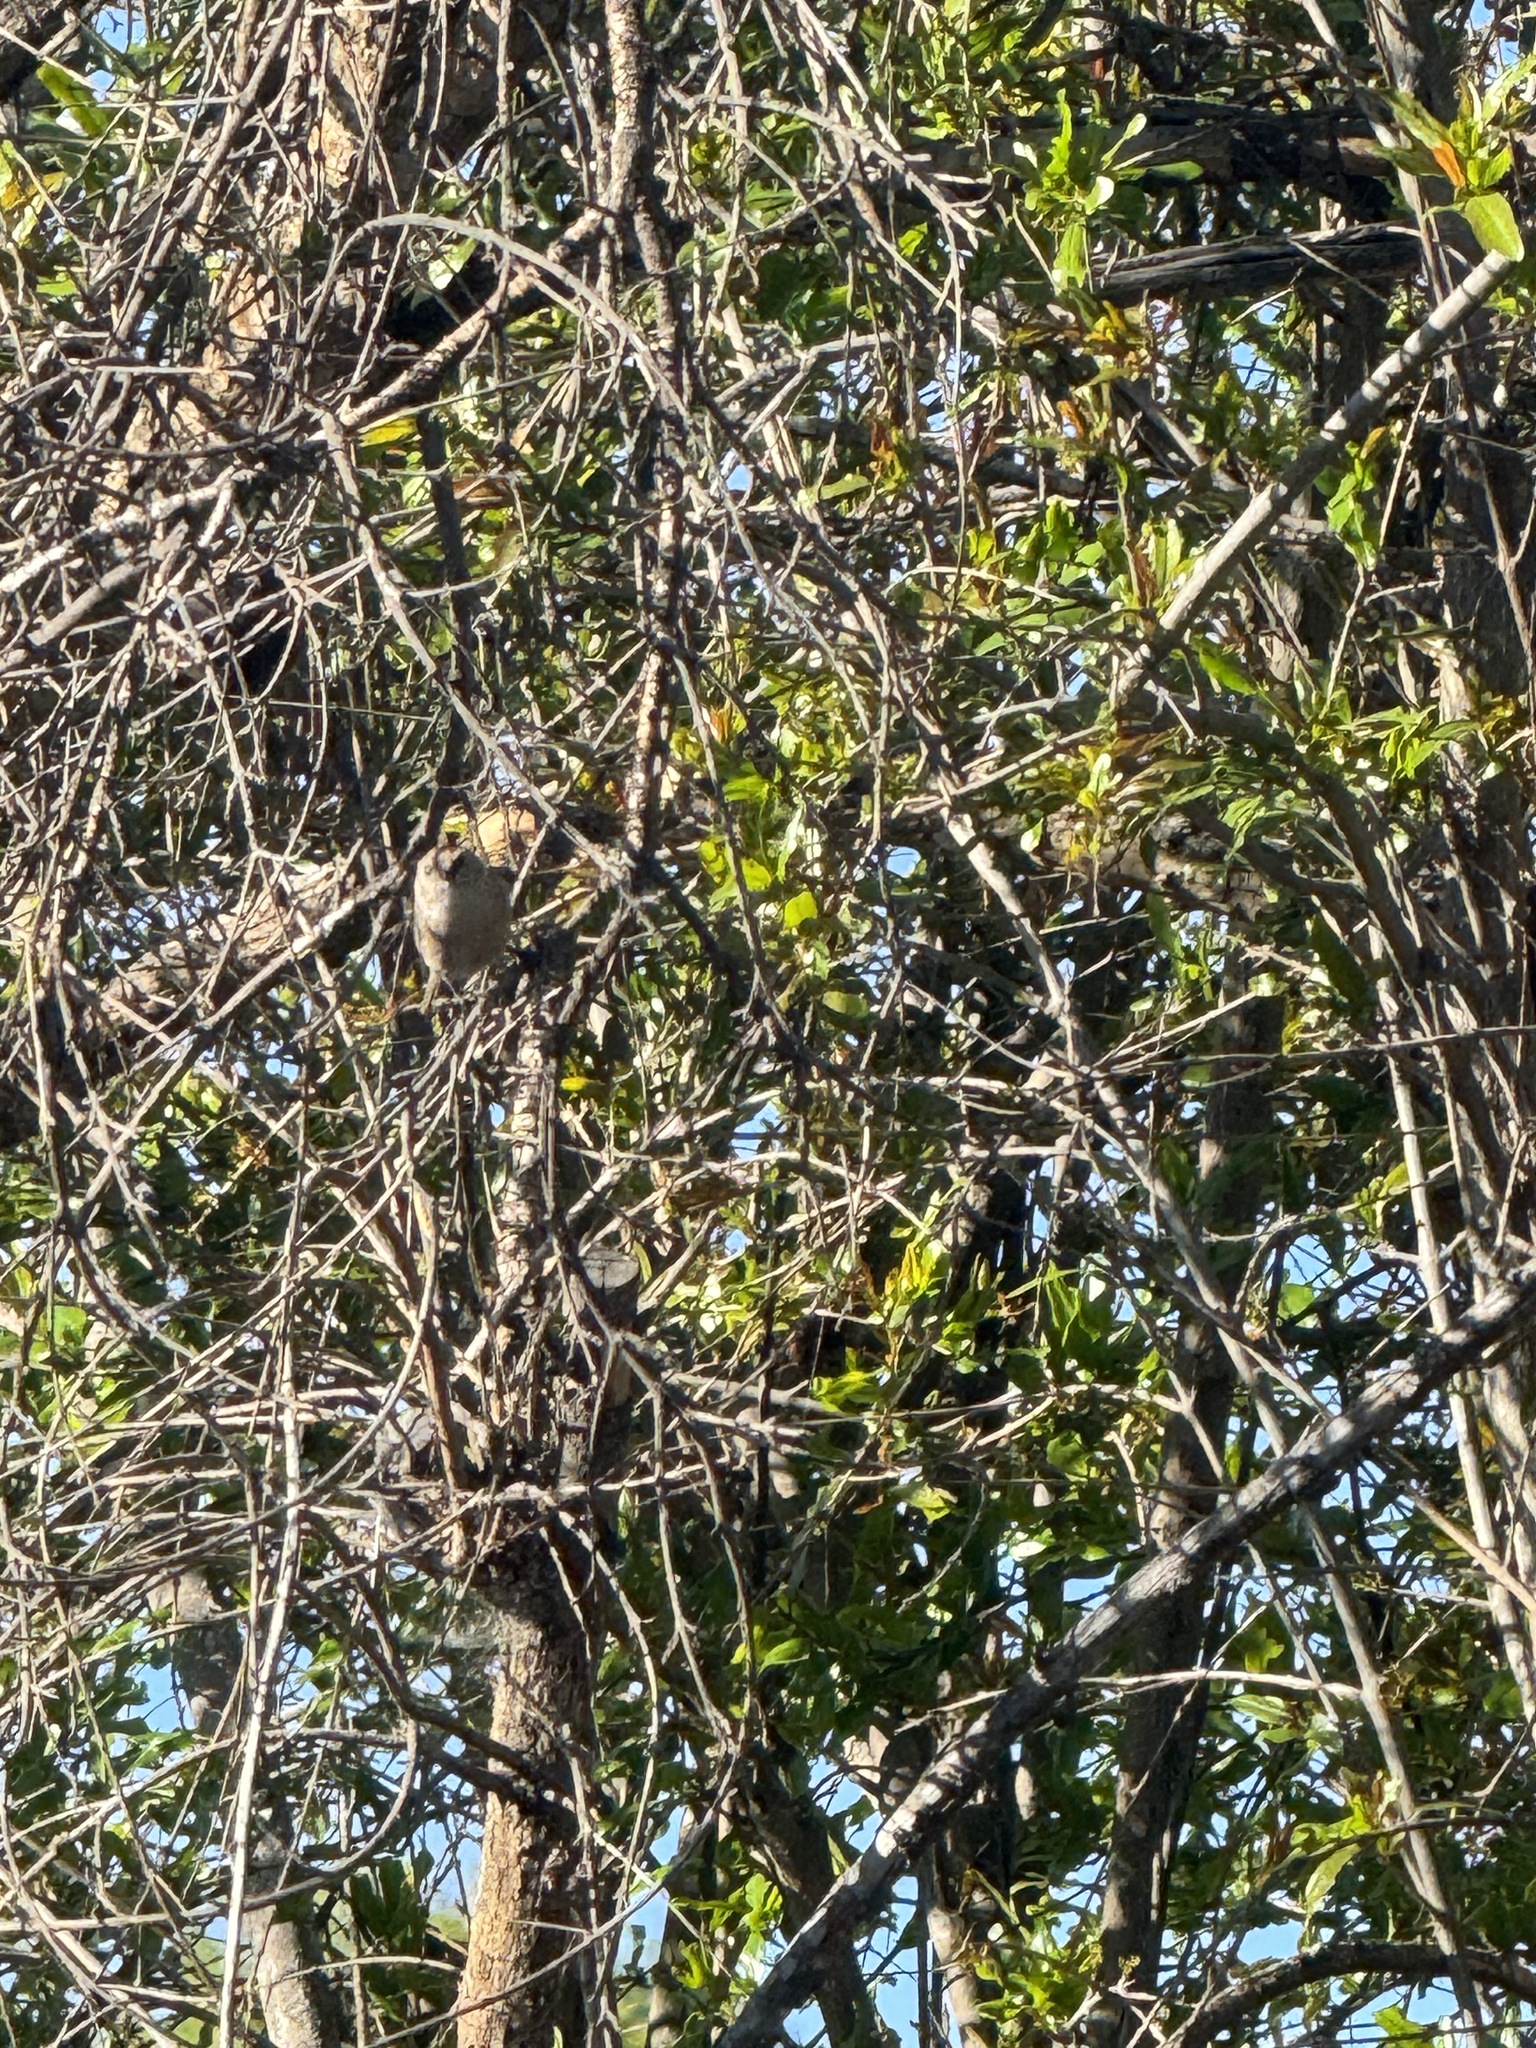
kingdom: Animalia
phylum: Chordata
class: Aves
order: Passeriformes
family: Aegithalidae
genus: Psaltriparus
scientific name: Psaltriparus minimus
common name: American bushtit
